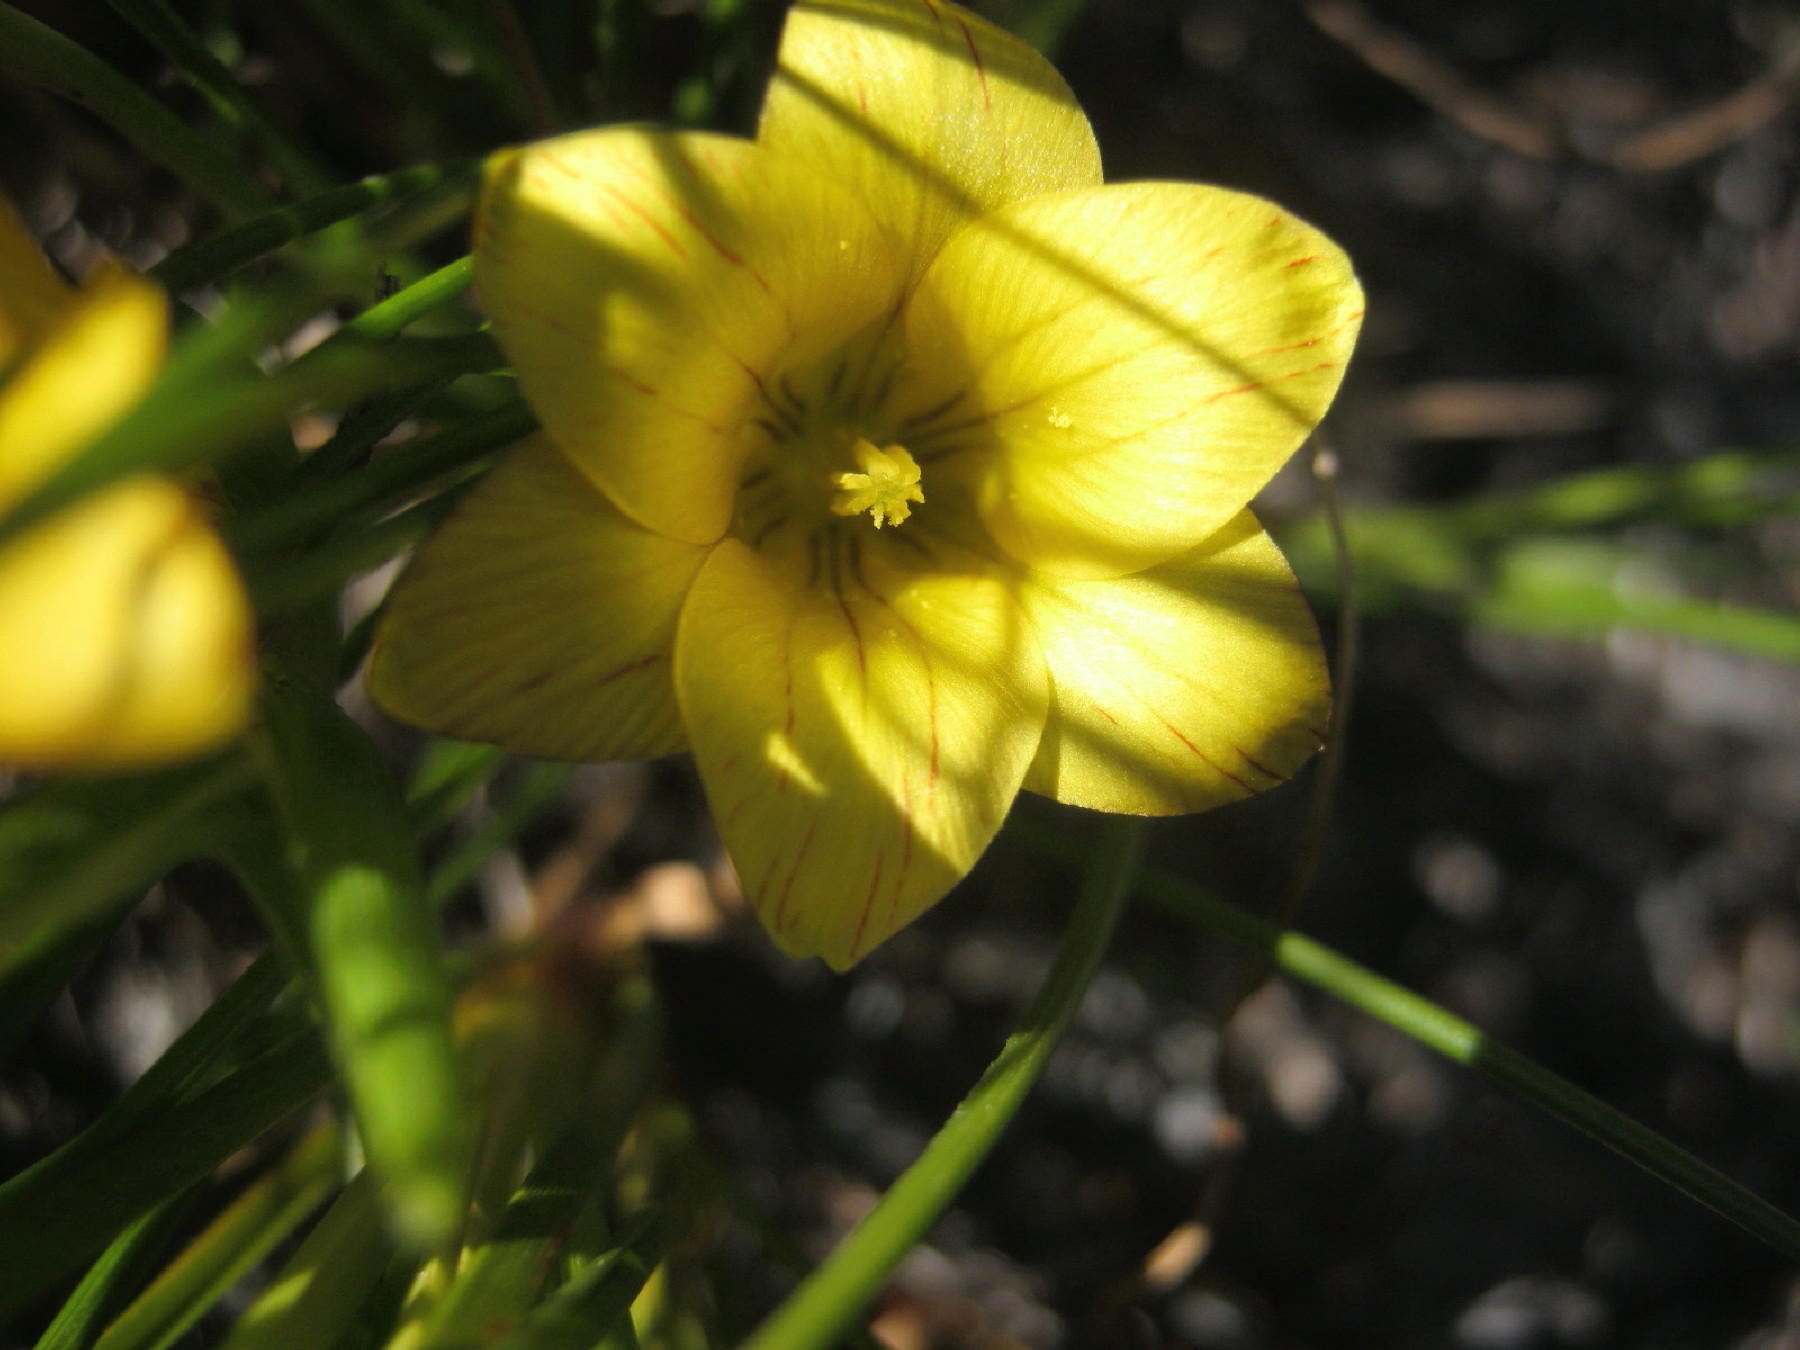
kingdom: Plantae
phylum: Tracheophyta
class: Liliopsida
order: Asparagales
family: Iridaceae
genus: Romulea
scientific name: Romulea flava
